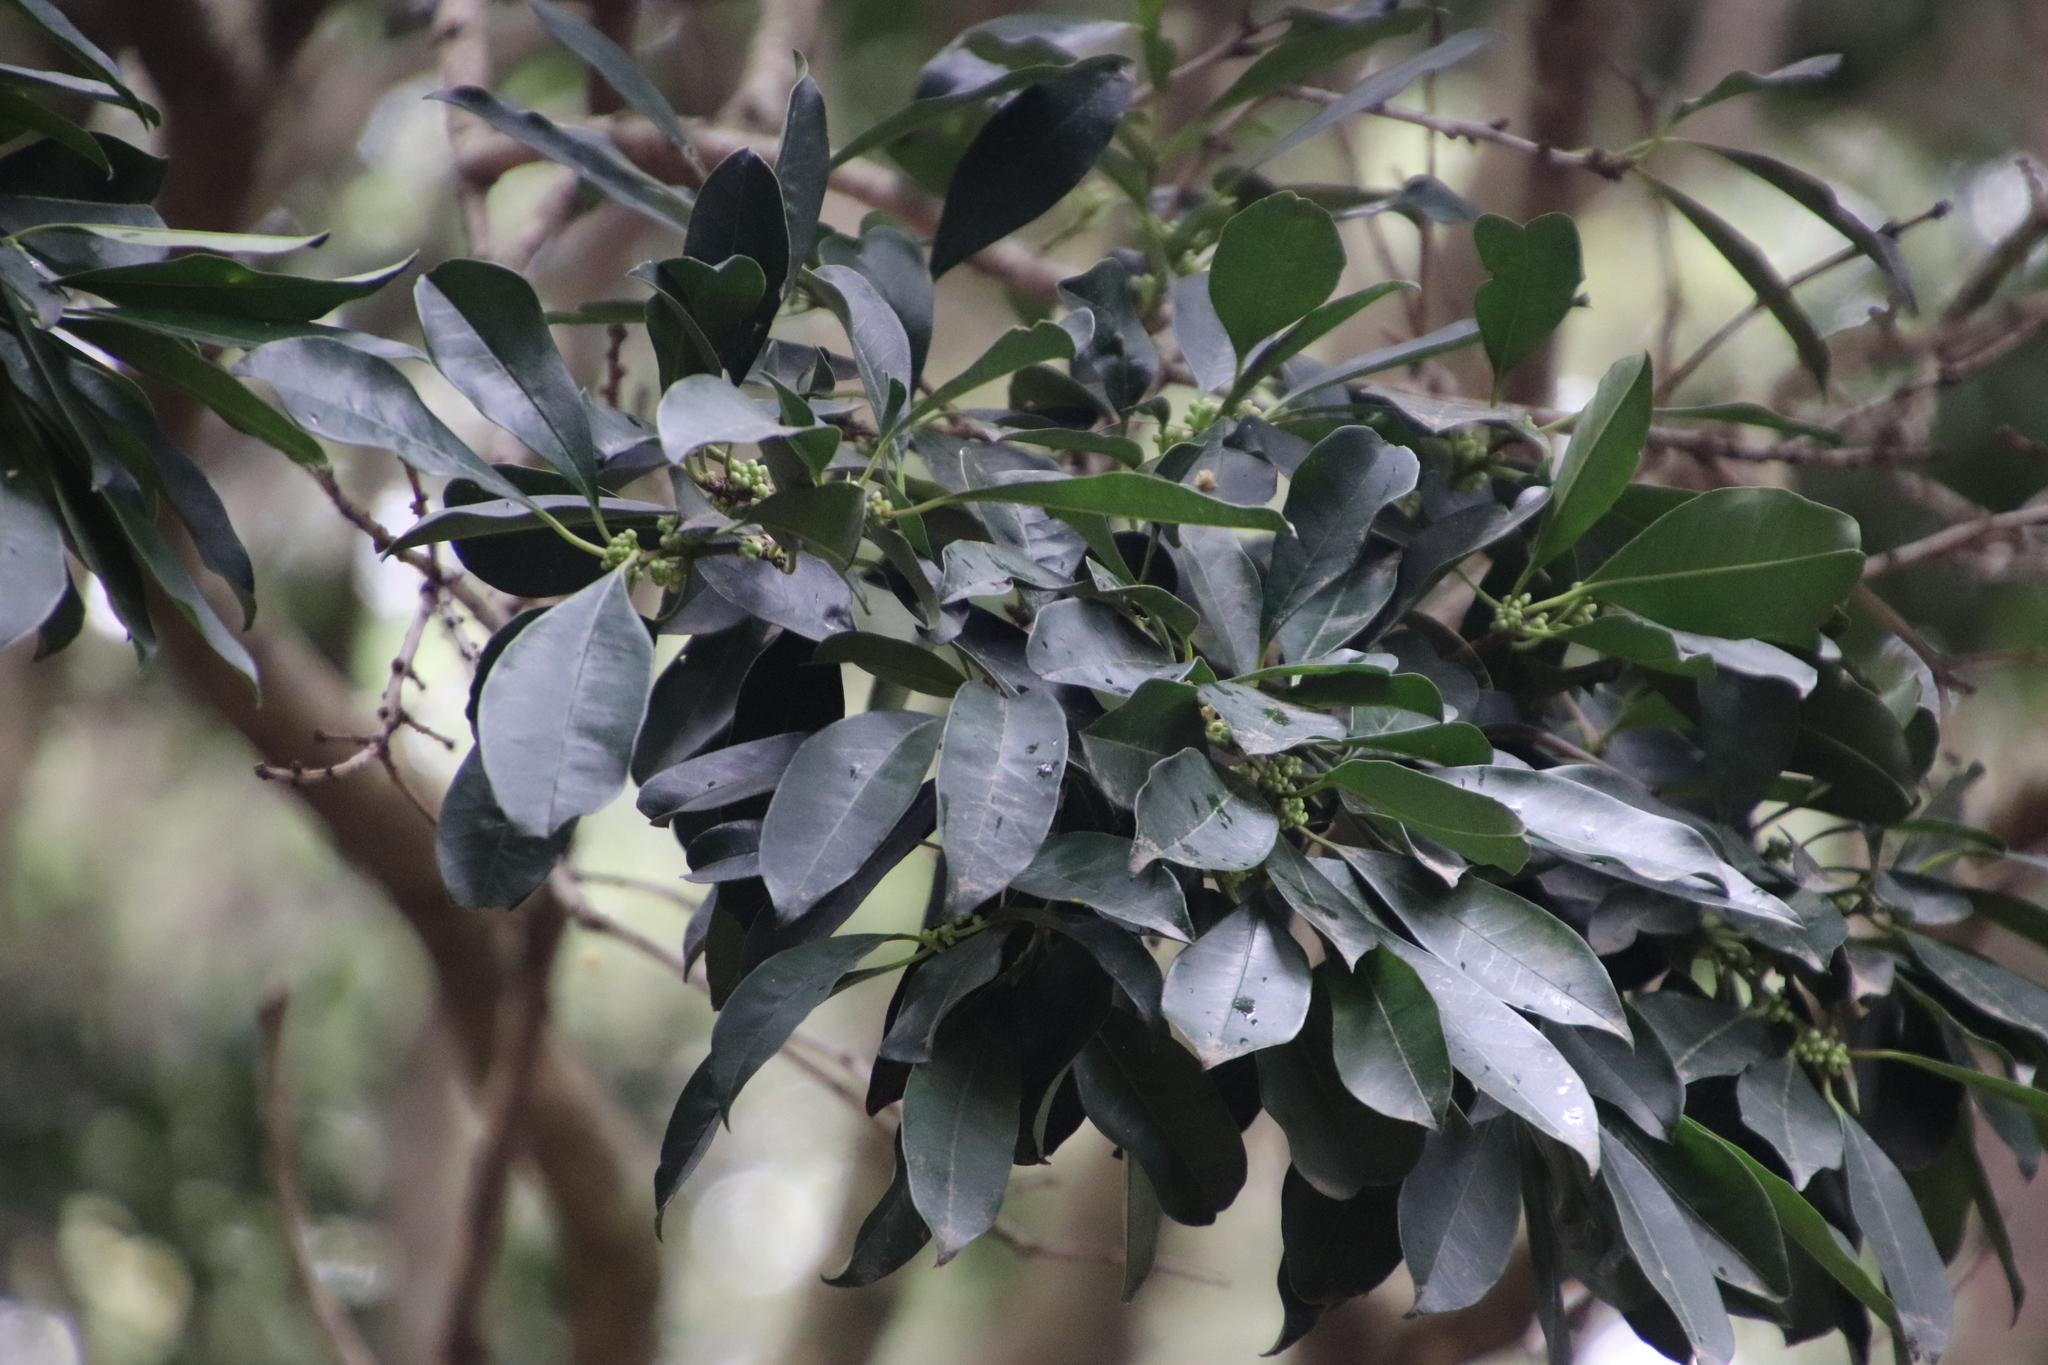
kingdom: Plantae
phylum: Tracheophyta
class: Magnoliopsida
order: Aquifoliales
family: Aquifoliaceae
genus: Ilex
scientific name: Ilex mitis
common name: African holly
